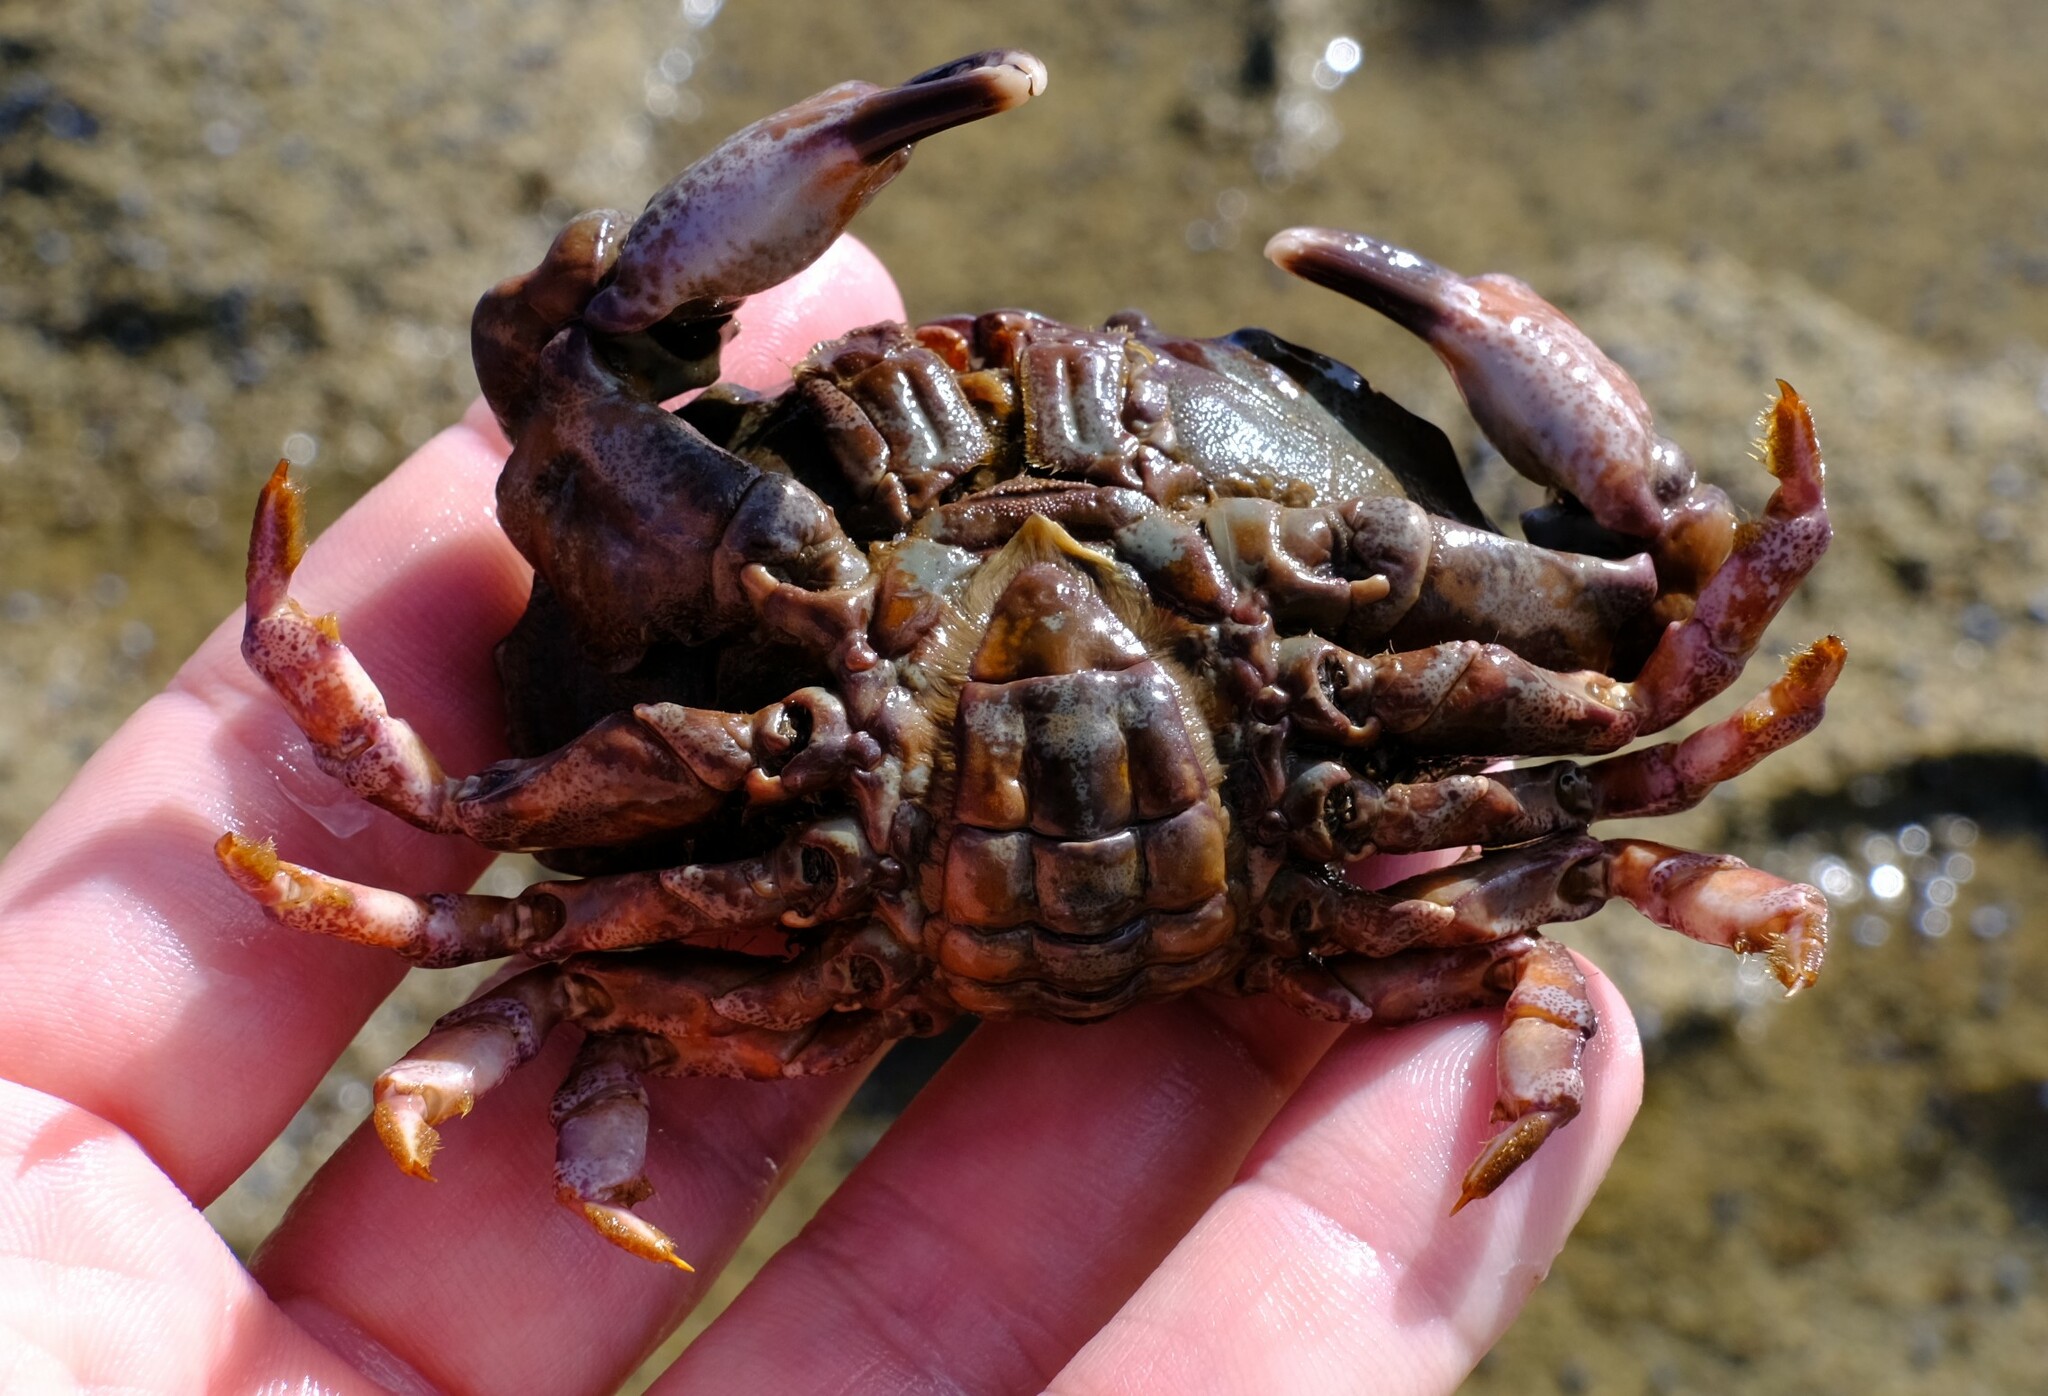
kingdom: Animalia
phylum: Arthropoda
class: Malacostraca
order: Decapoda
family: Xanthidae
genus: Euxanthus
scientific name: Euxanthus exsculptus
